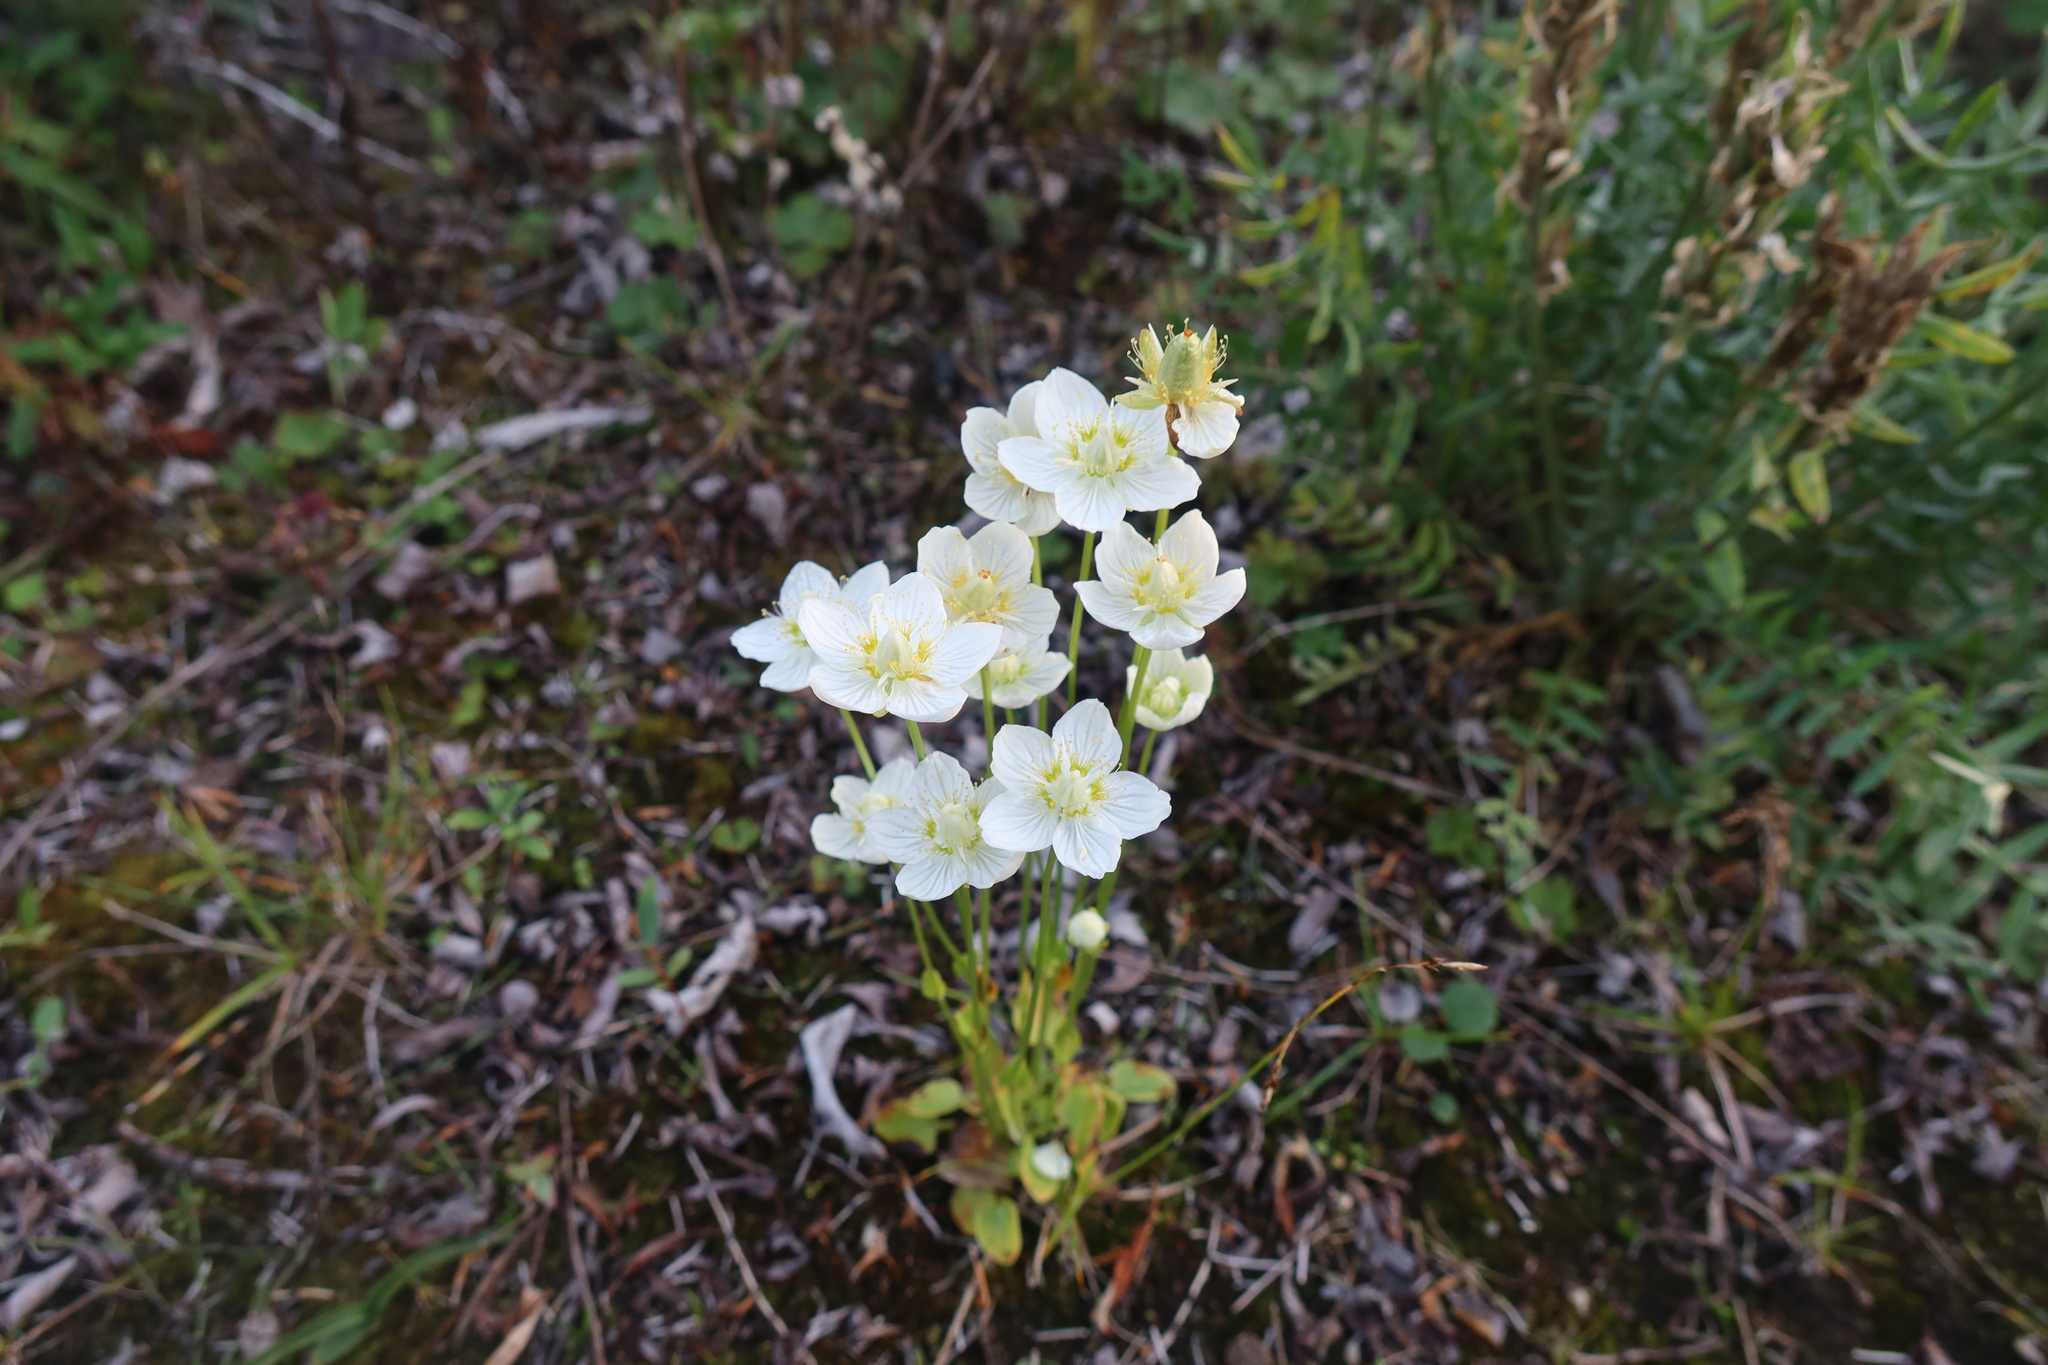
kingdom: Plantae
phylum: Tracheophyta
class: Magnoliopsida
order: Celastrales
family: Parnassiaceae
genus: Parnassia
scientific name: Parnassia palustris
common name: Grass-of-parnassus
